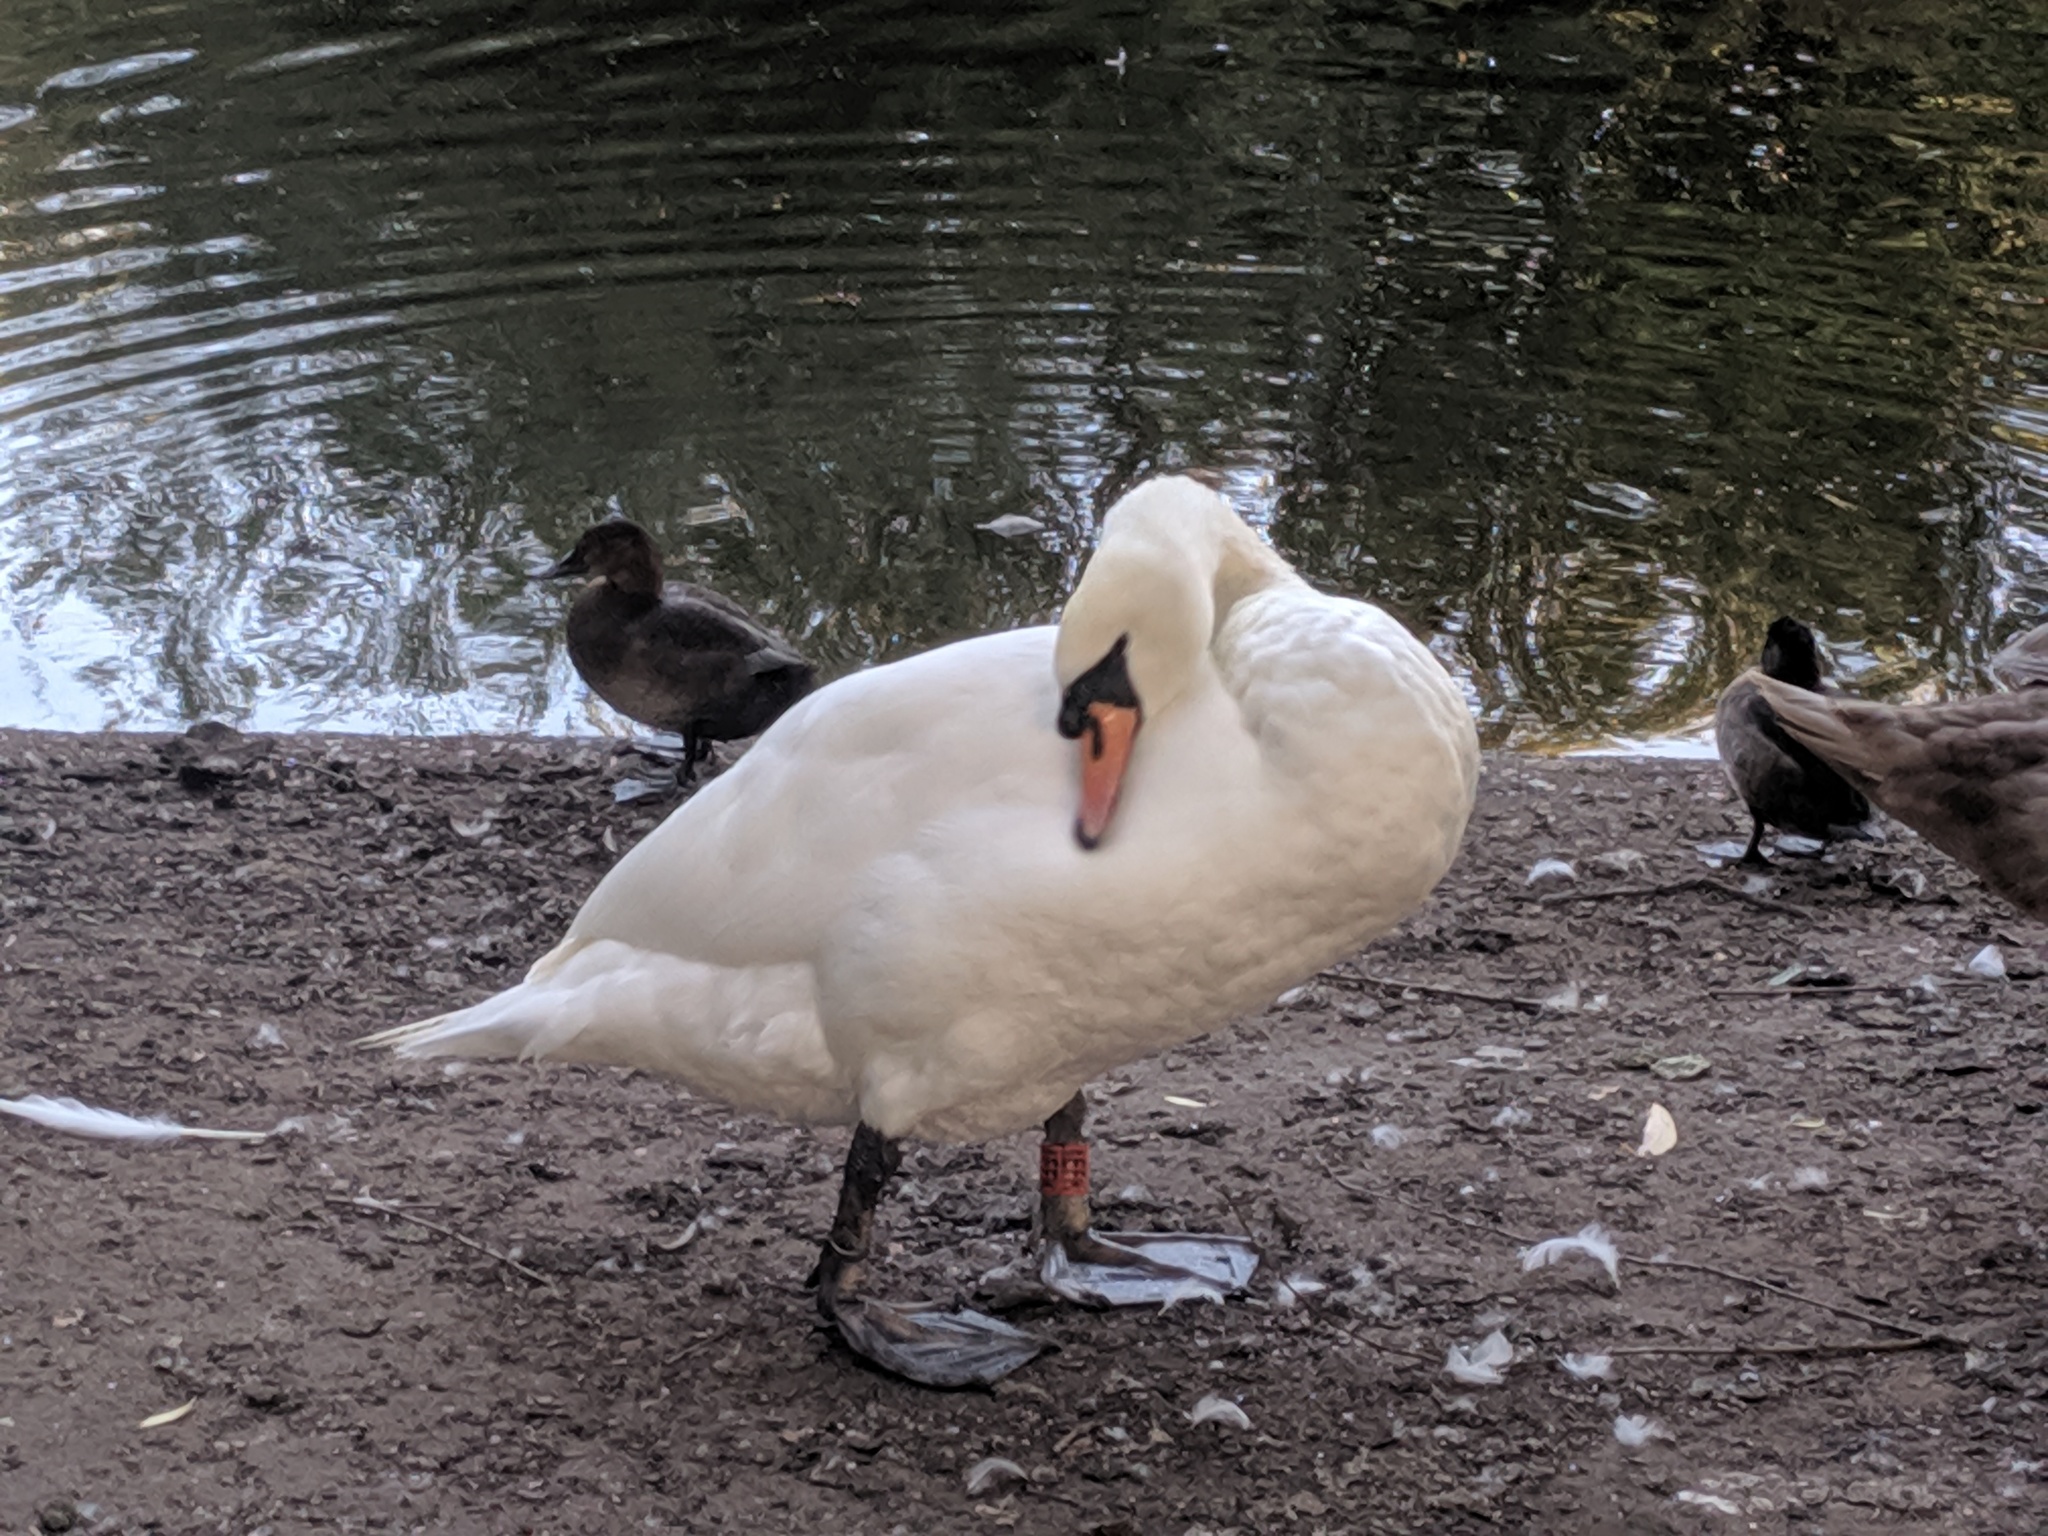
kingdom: Animalia
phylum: Chordata
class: Aves
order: Anseriformes
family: Anatidae
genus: Cygnus
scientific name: Cygnus olor
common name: Mute swan
